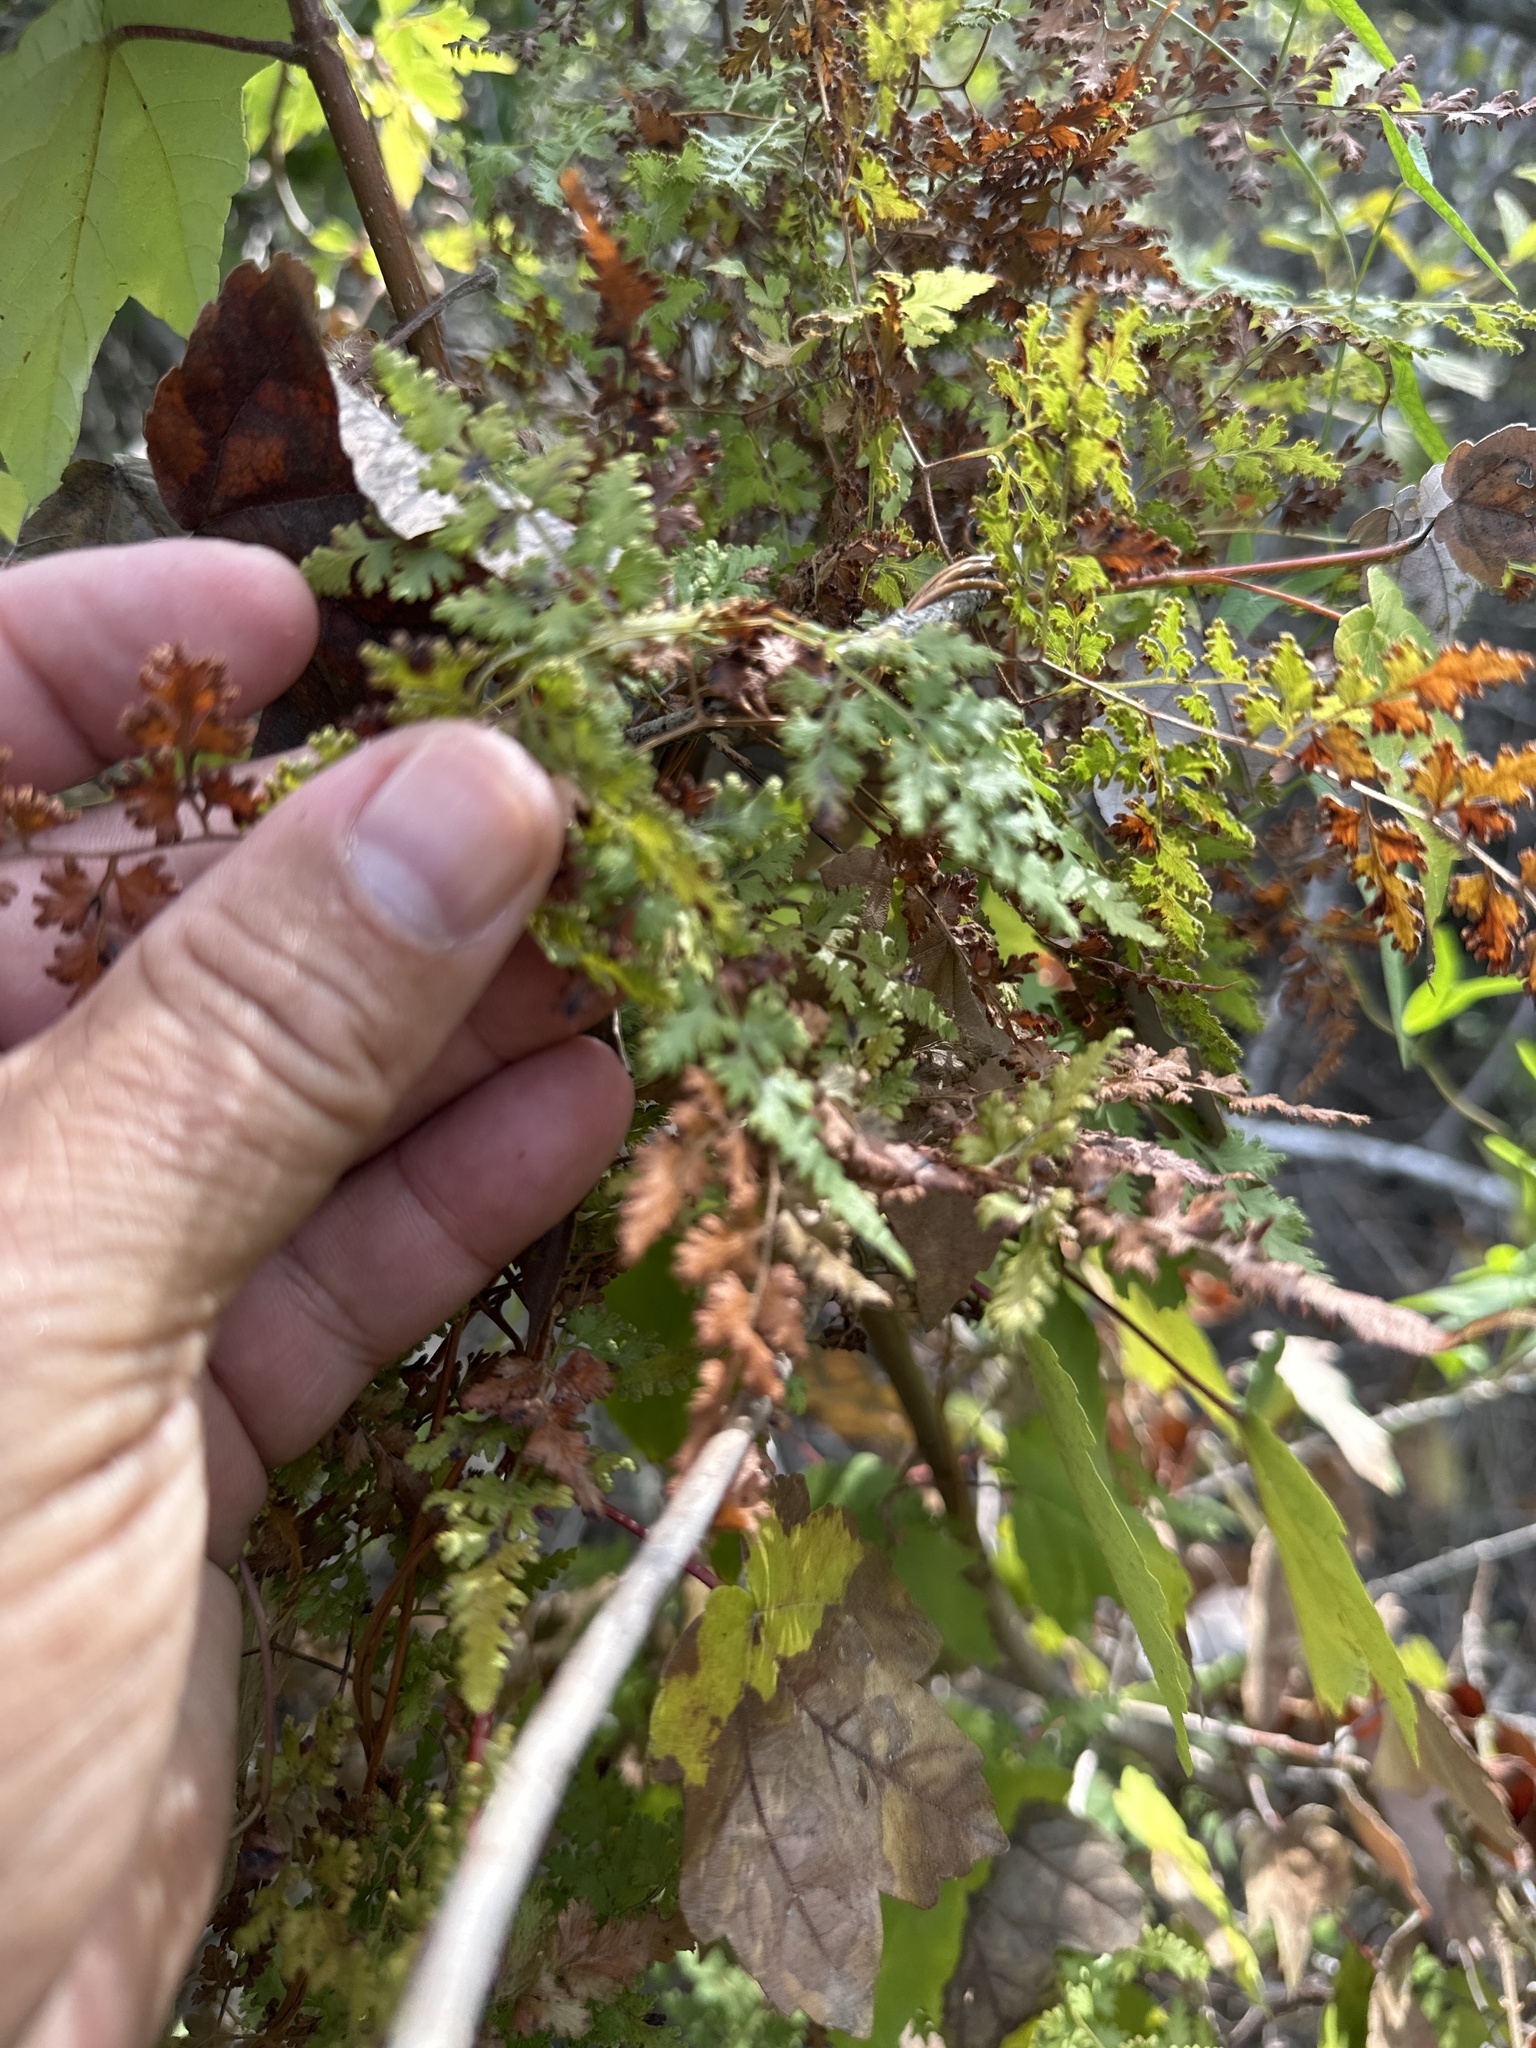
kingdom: Plantae
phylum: Tracheophyta
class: Polypodiopsida
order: Schizaeales
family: Lygodiaceae
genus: Lygodium
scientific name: Lygodium japonicum
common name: Japanese climbing fern
